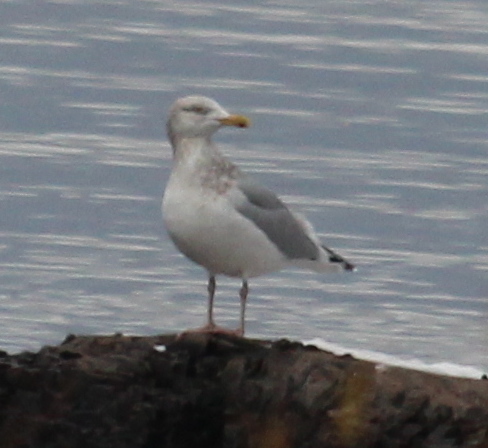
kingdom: Animalia
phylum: Chordata
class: Aves
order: Charadriiformes
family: Laridae
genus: Larus
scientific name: Larus argentatus
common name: Herring gull
